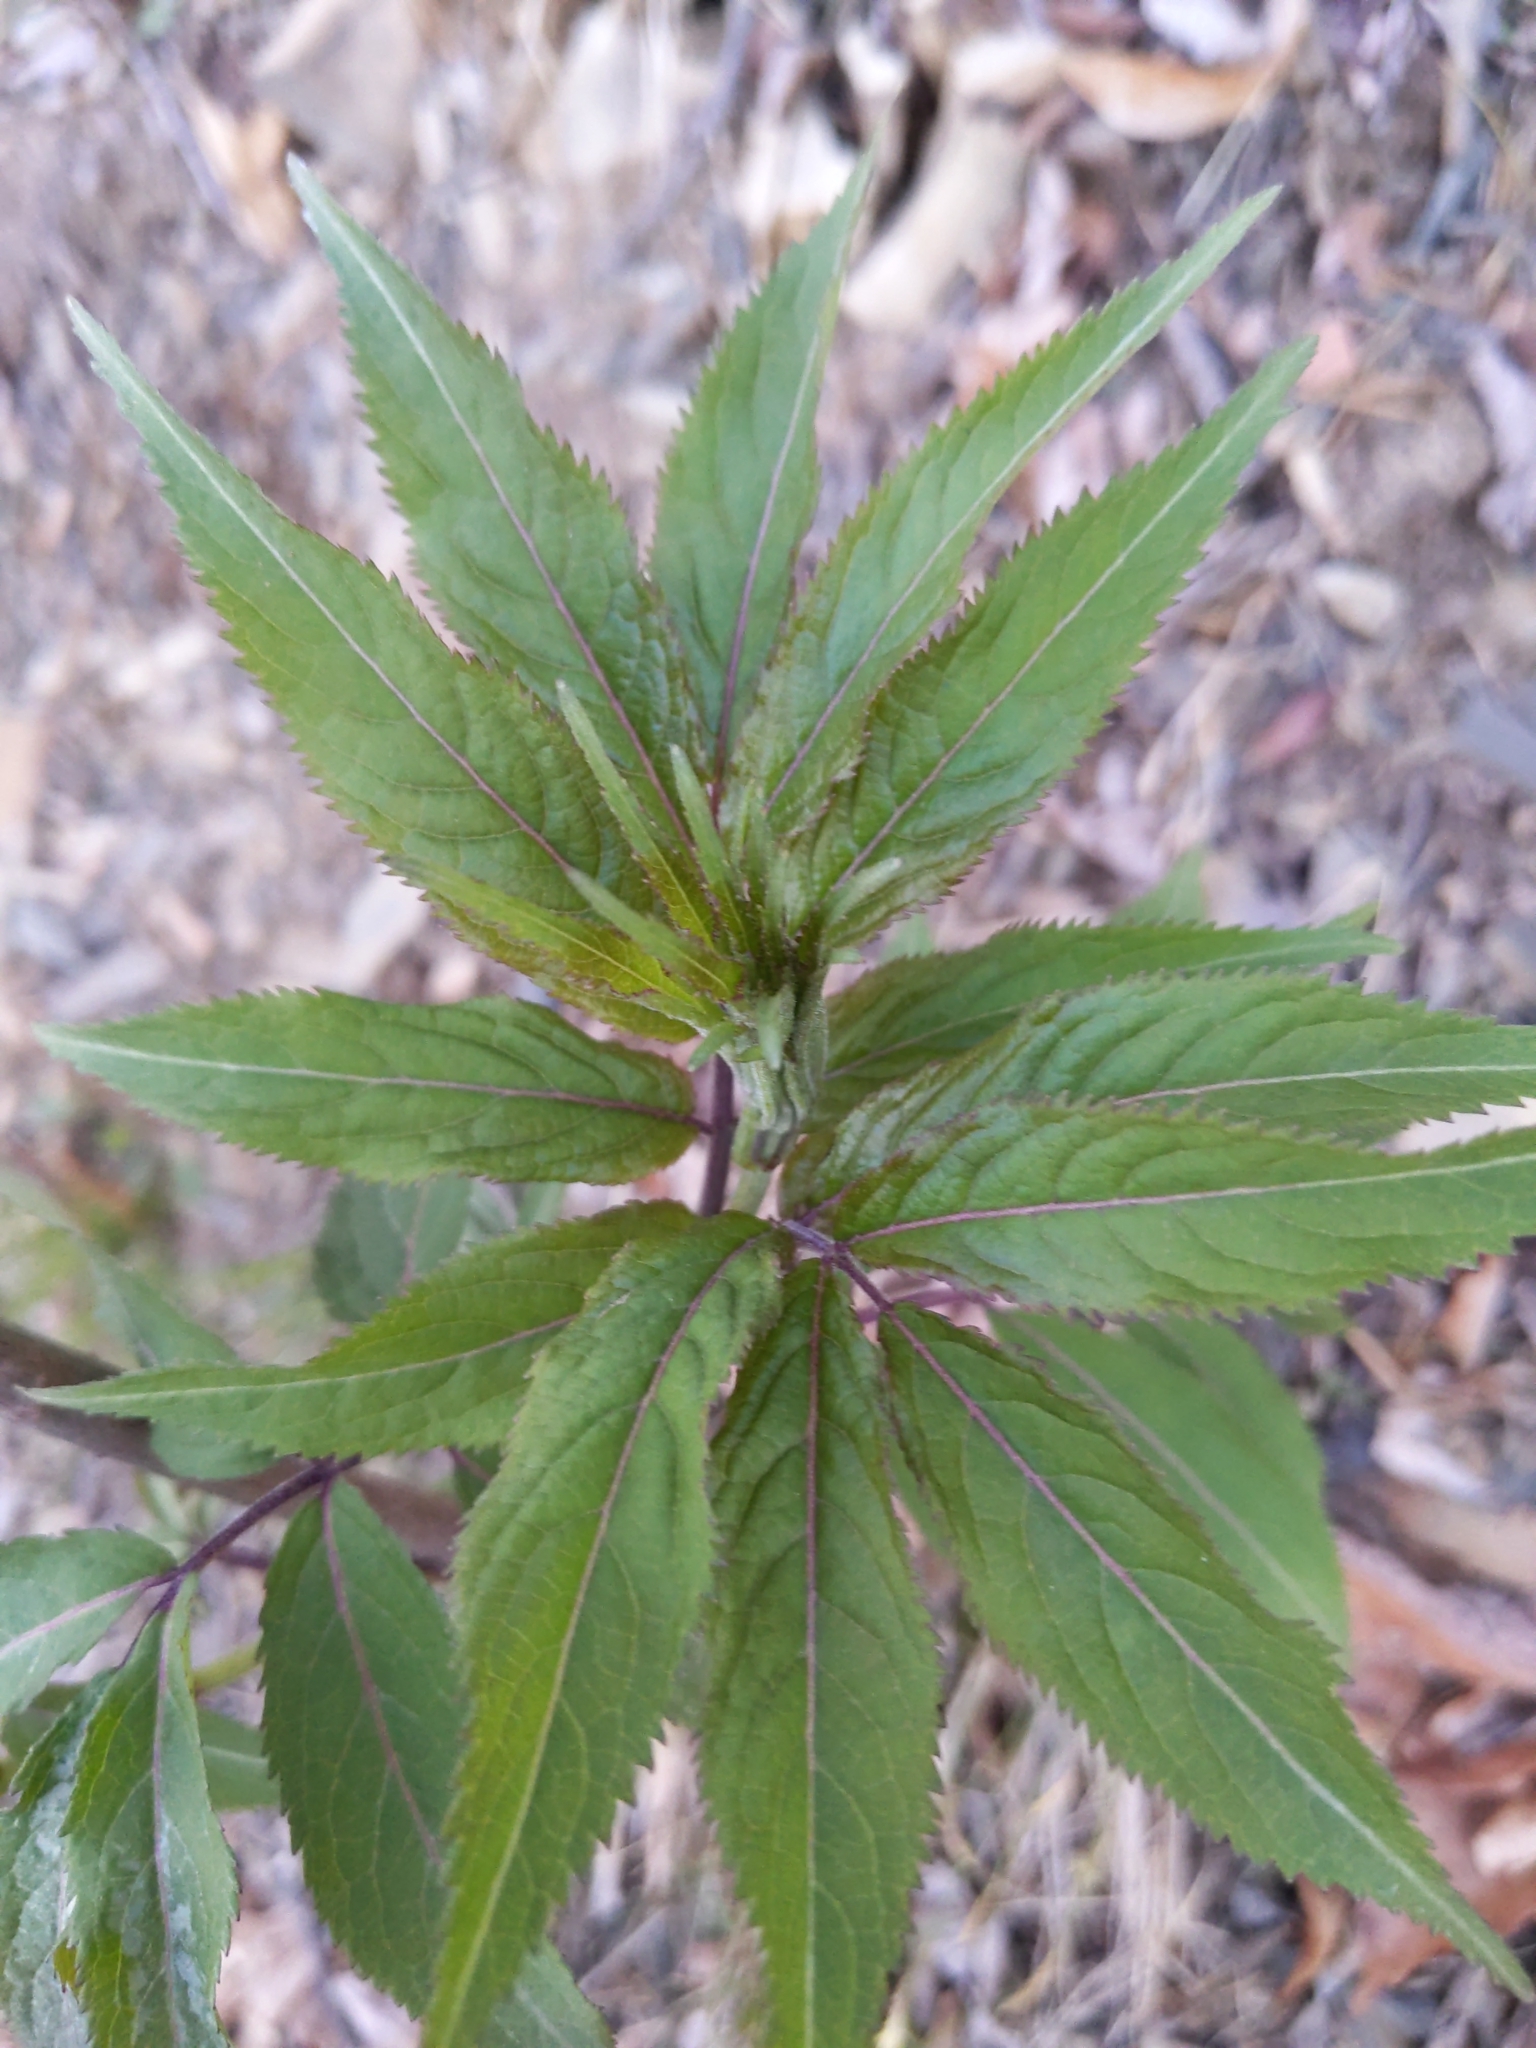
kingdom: Plantae
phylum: Tracheophyta
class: Magnoliopsida
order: Dipsacales
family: Viburnaceae
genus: Sambucus
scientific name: Sambucus racemosa
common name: Red-berried elder
